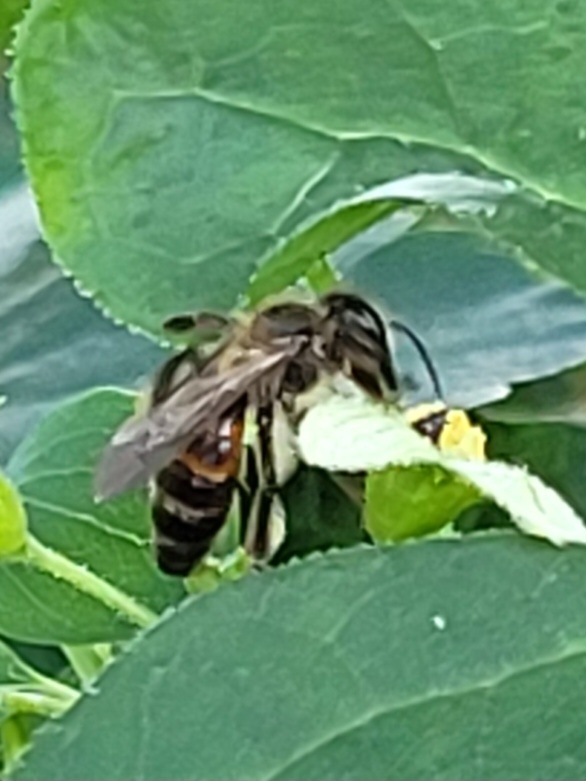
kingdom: Animalia
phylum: Arthropoda
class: Insecta
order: Hymenoptera
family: Andrenidae
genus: Andrena
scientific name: Andrena florea
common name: Bryony mining bee
